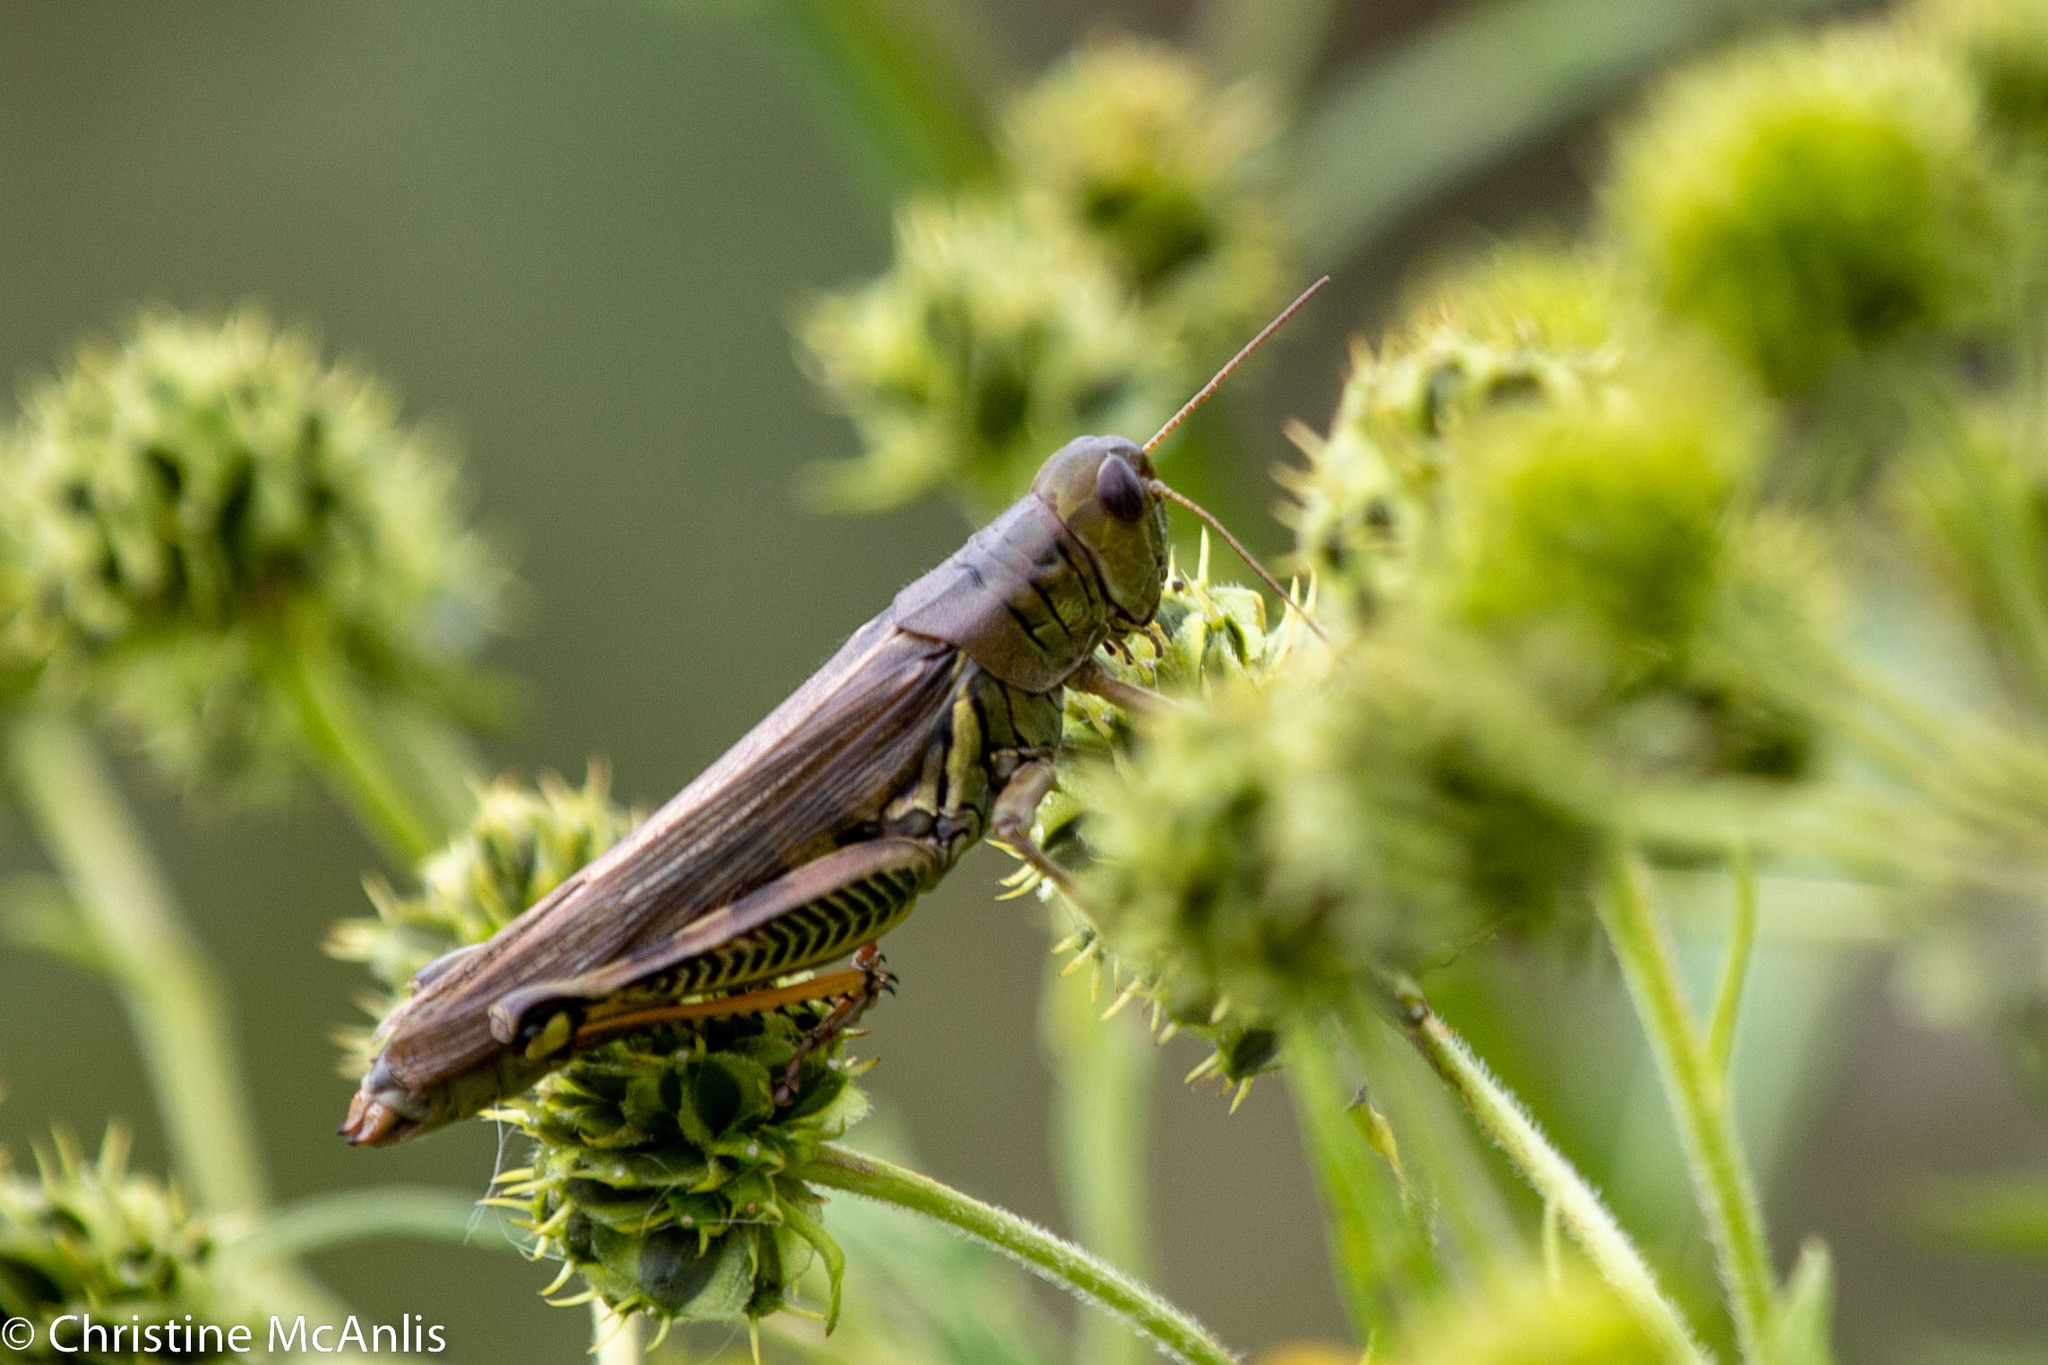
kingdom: Animalia
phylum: Arthropoda
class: Insecta
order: Orthoptera
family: Acrididae
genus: Melanoplus
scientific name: Melanoplus differentialis
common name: Differential grasshopper
